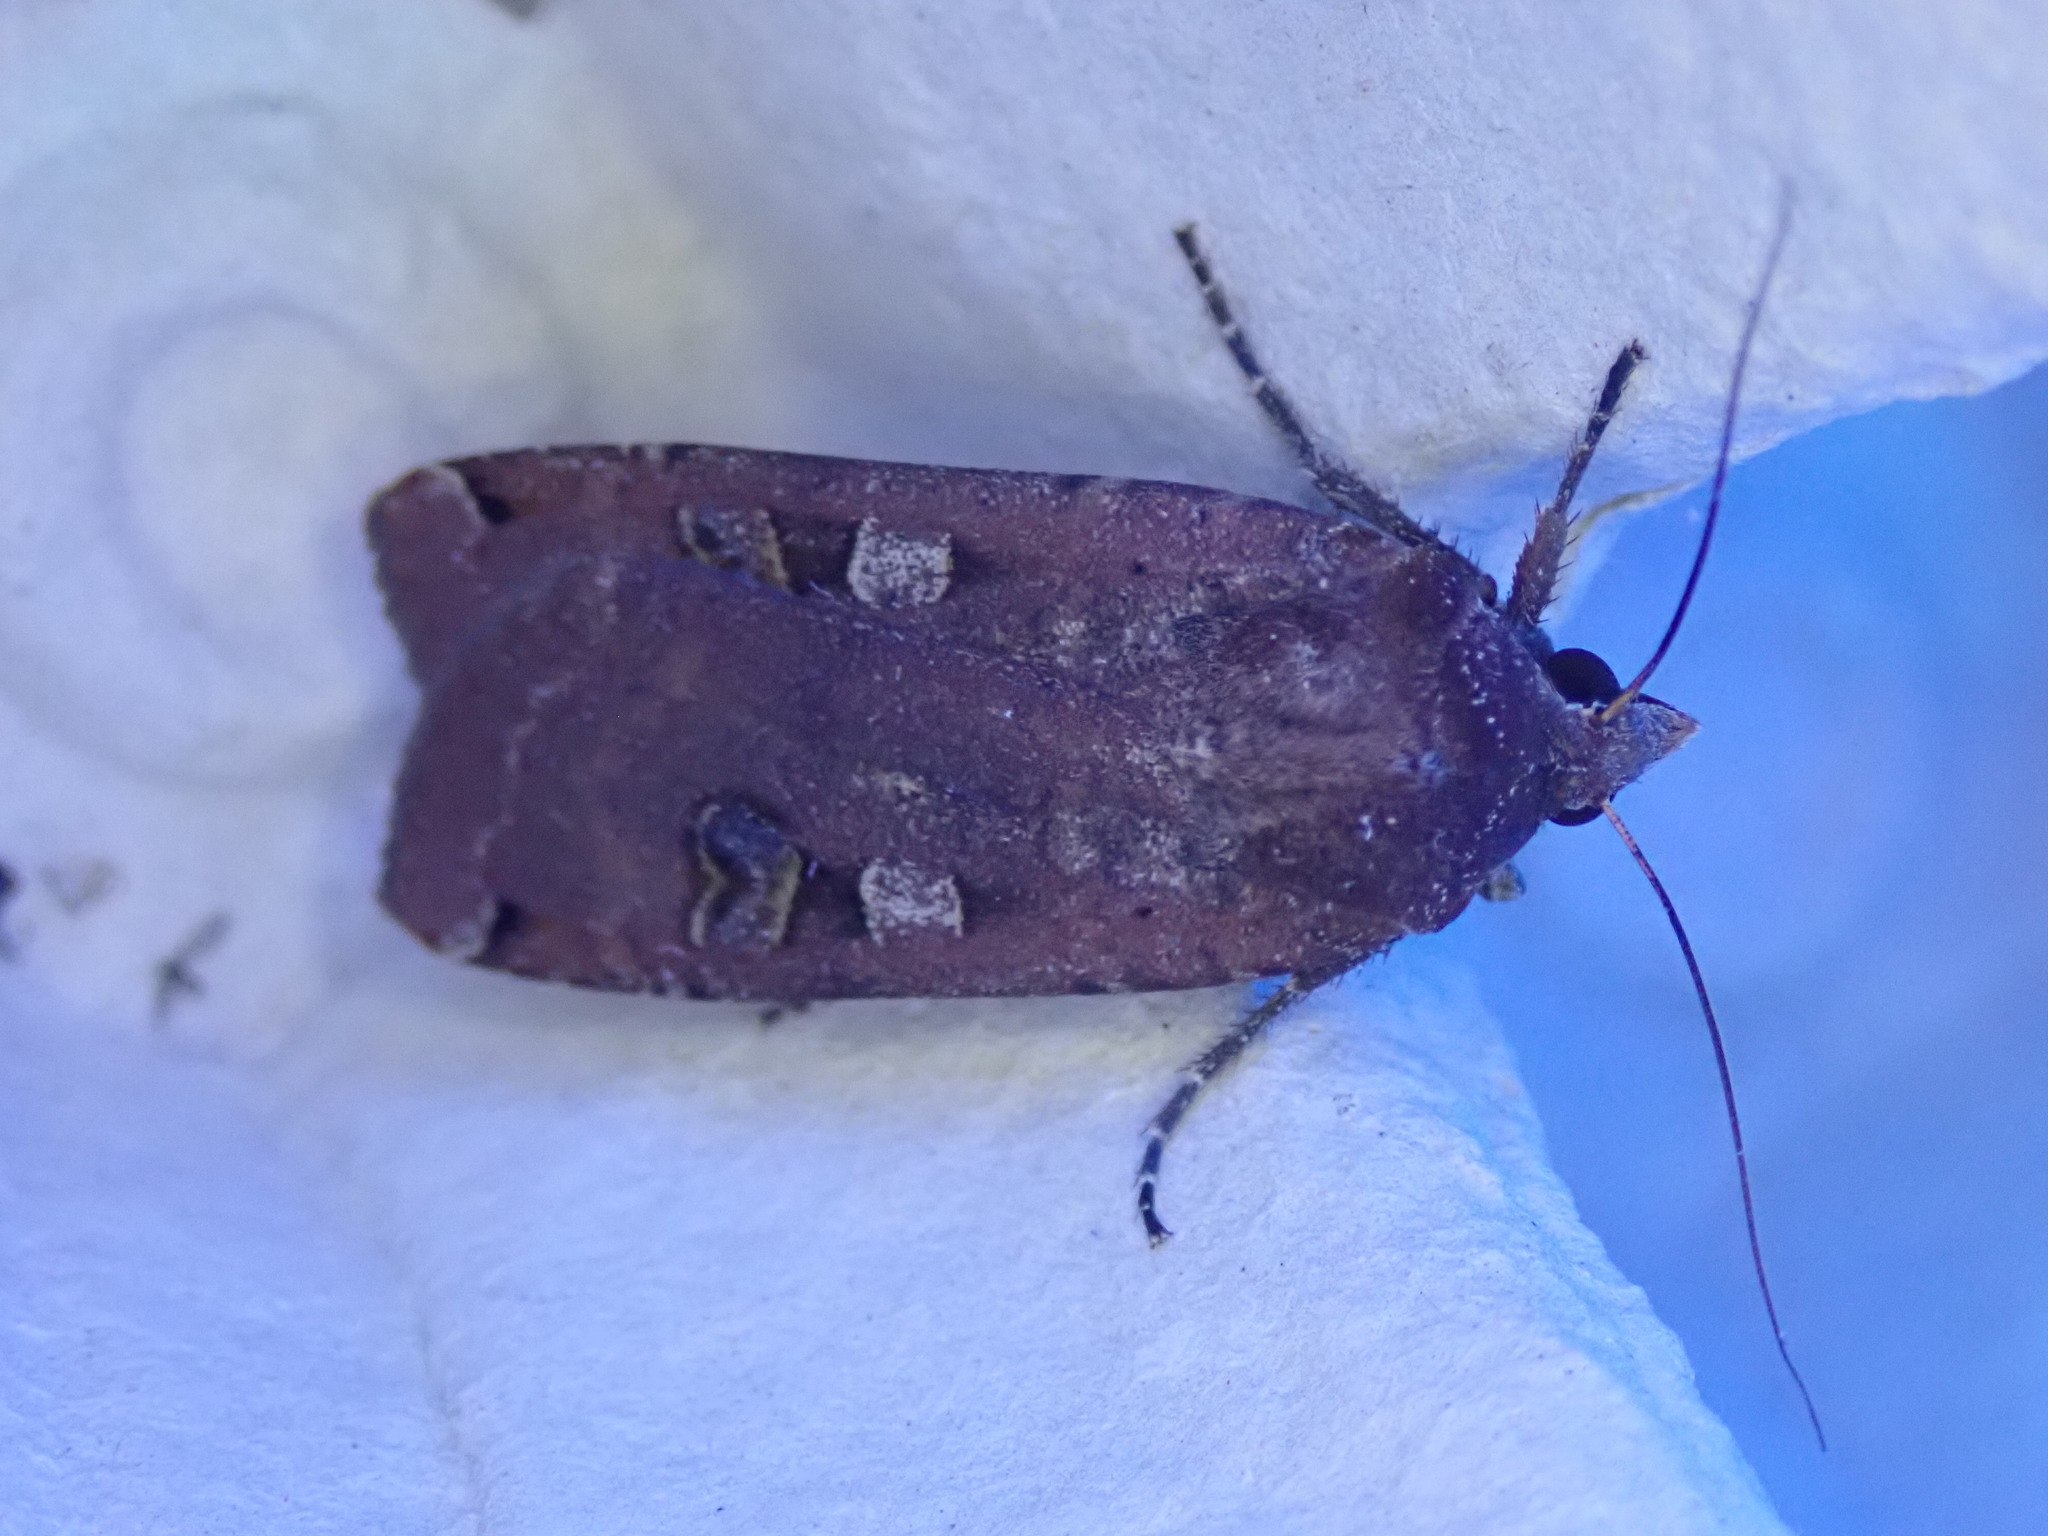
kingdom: Animalia
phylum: Arthropoda
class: Insecta
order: Lepidoptera
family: Noctuidae
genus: Noctua
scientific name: Noctua pronuba
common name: Large yellow underwing
